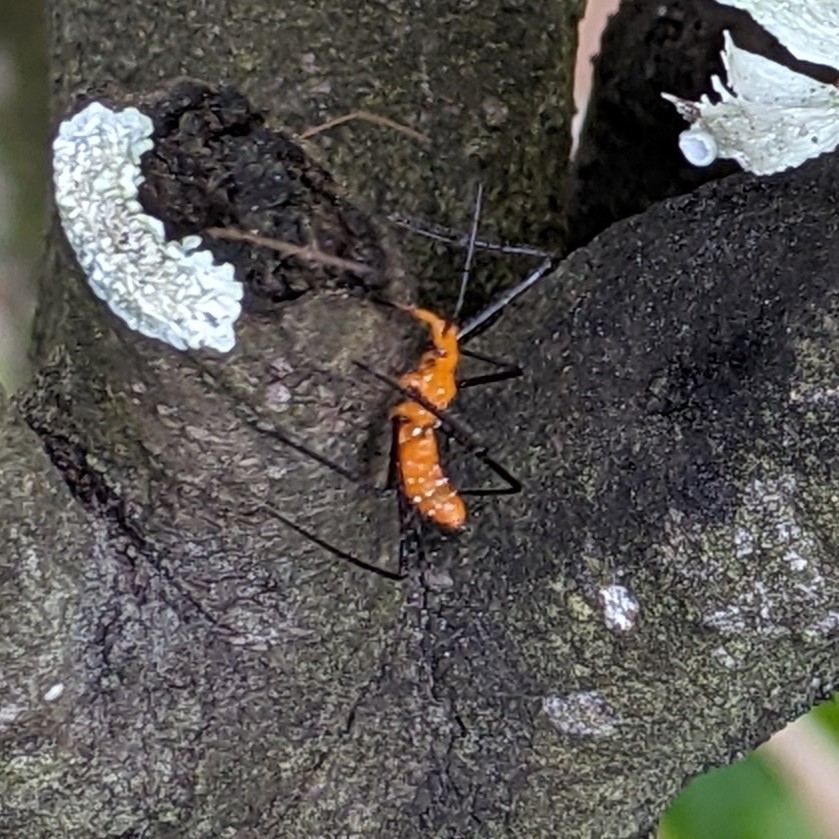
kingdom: Animalia
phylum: Arthropoda
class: Insecta
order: Hemiptera
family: Reduviidae
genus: Zelus
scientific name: Zelus longipes
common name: Milkweed assassin bug
